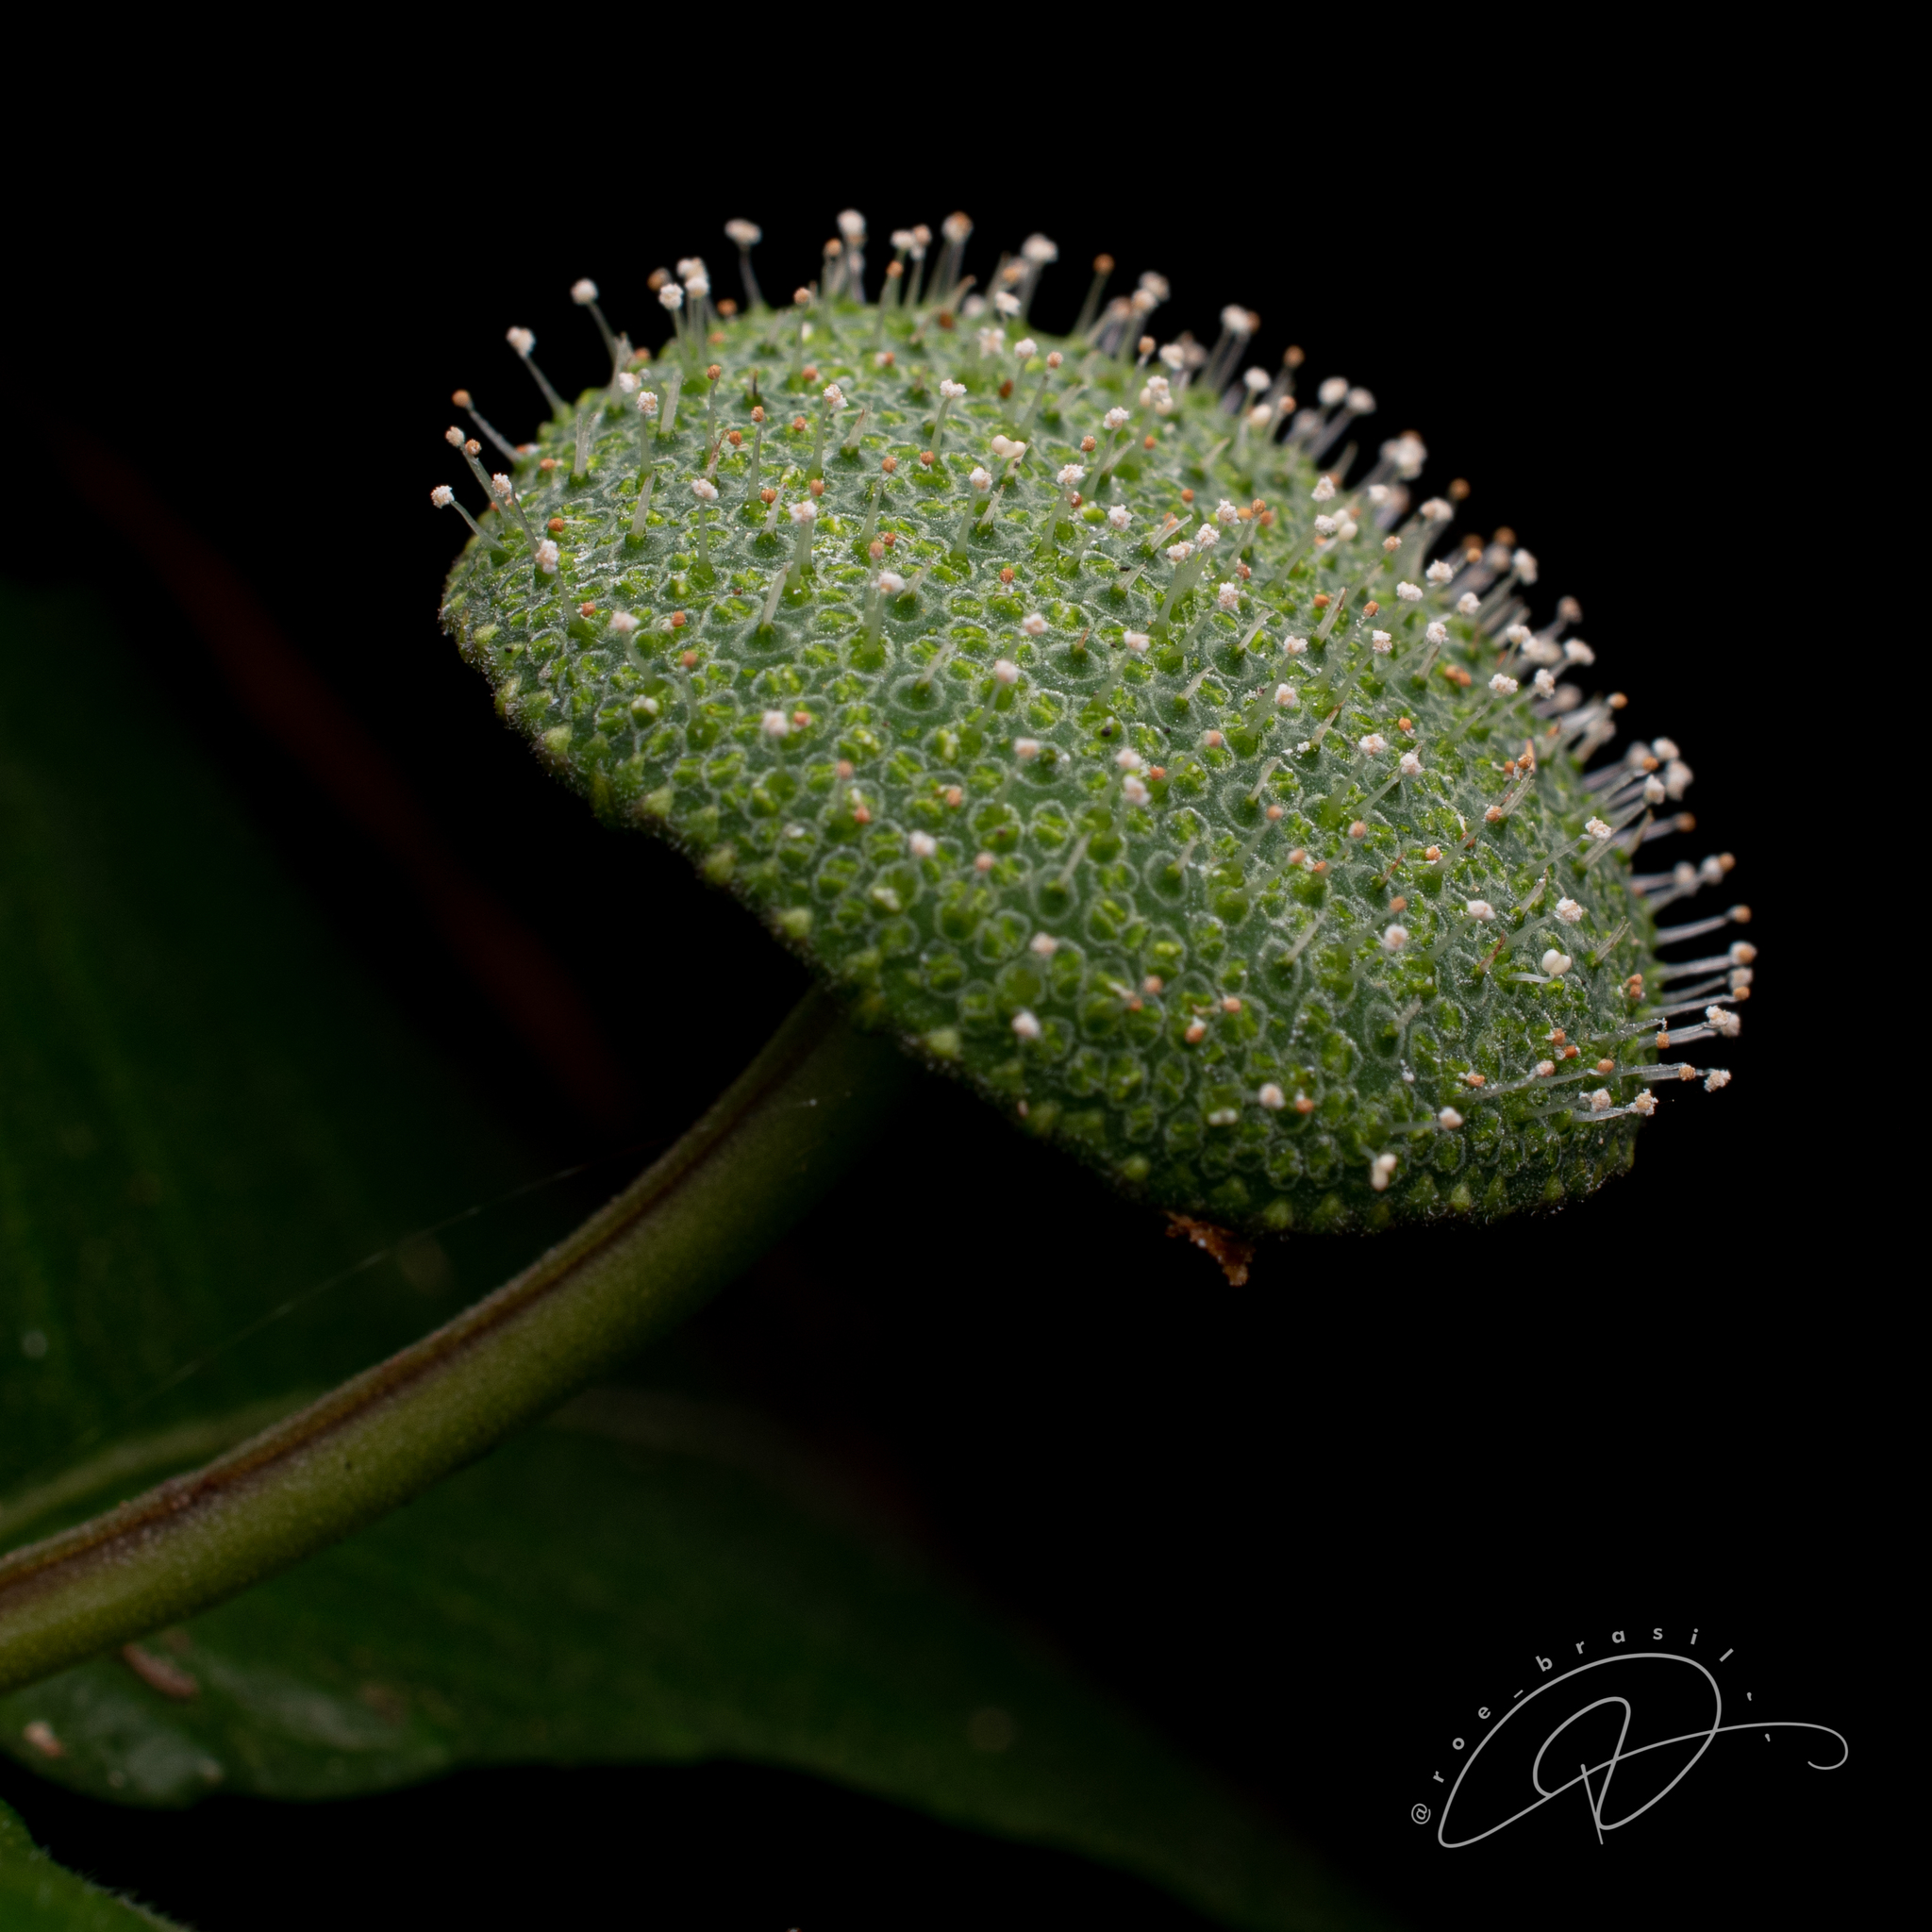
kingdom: Plantae
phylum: Tracheophyta
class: Magnoliopsida
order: Rosales
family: Moraceae
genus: Dorstenia
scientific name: Dorstenia hirta
